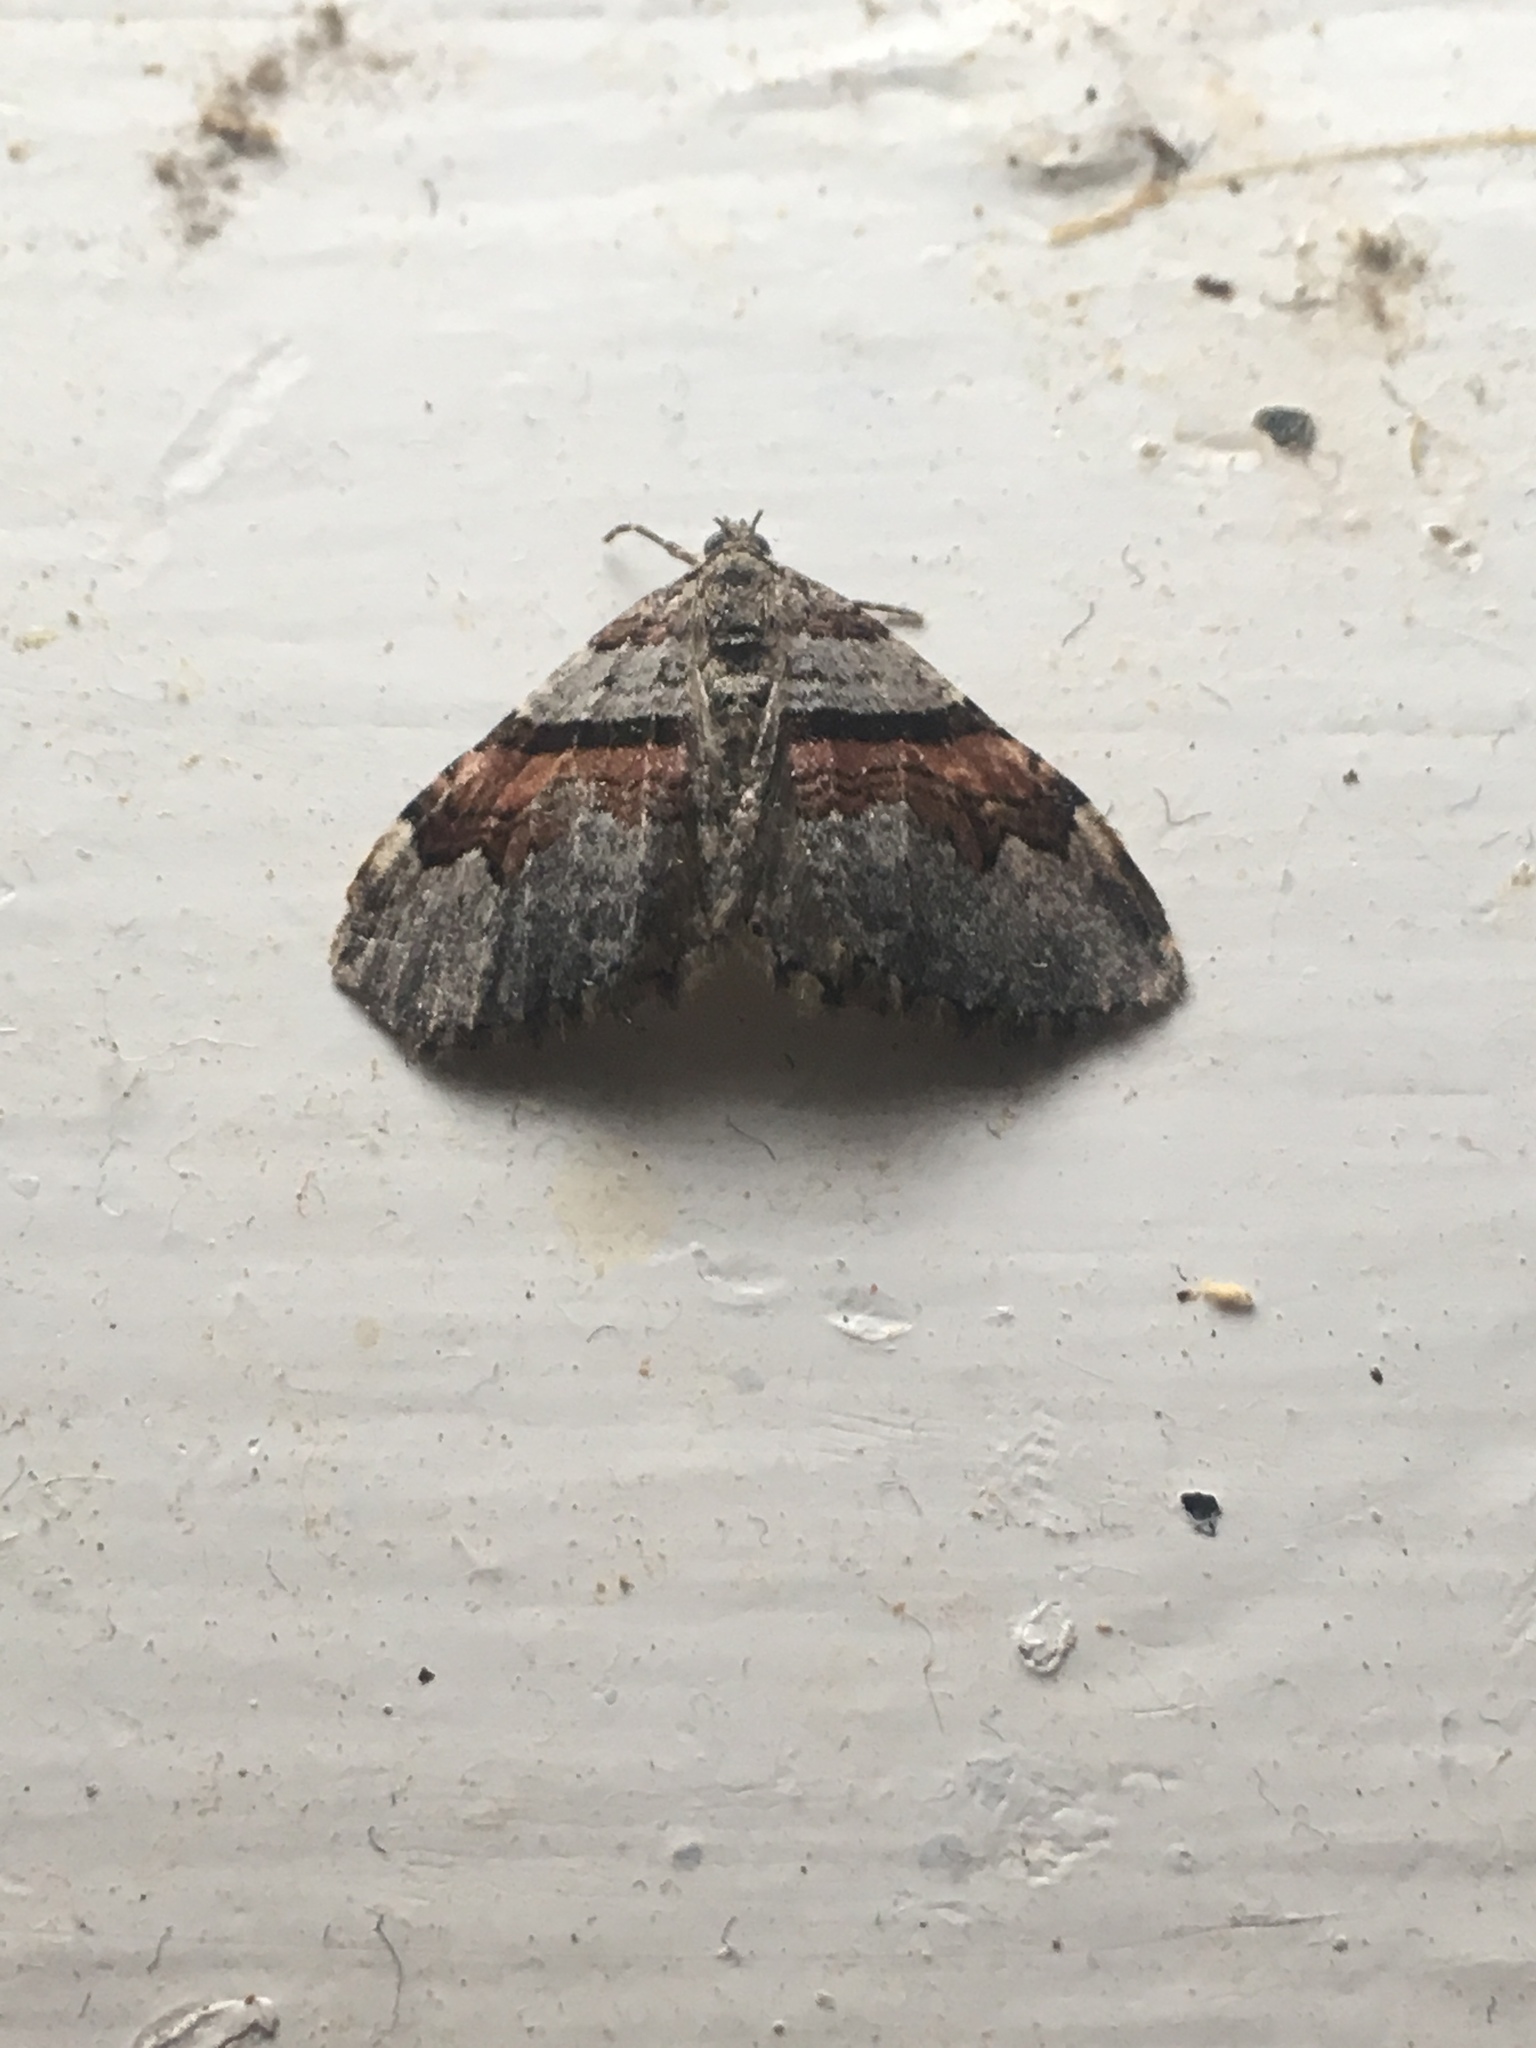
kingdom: Animalia
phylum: Arthropoda
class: Insecta
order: Lepidoptera
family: Geometridae
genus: Xanthorhoe
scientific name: Xanthorhoe labradorensis
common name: Labrador carpet
